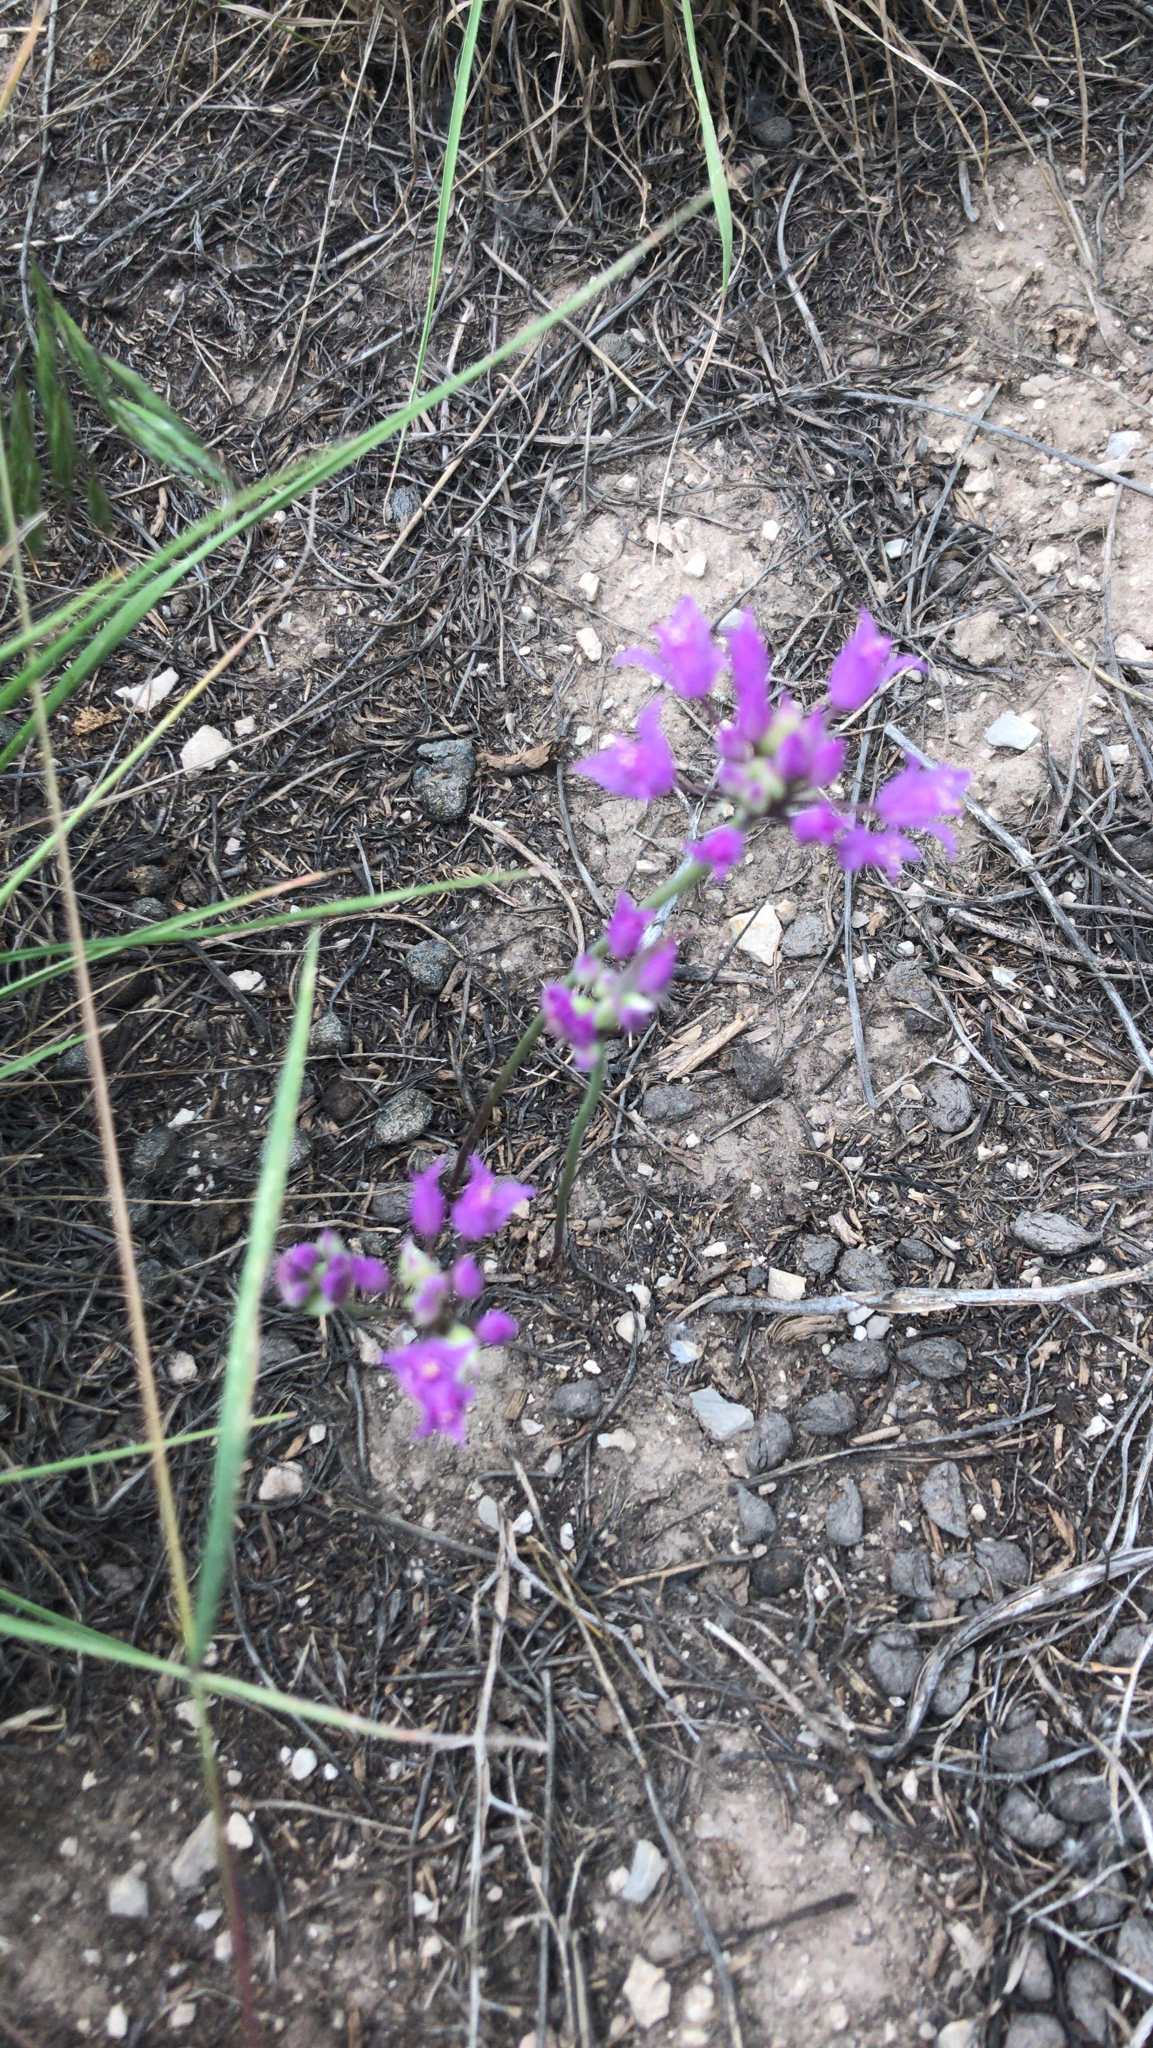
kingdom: Plantae
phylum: Tracheophyta
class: Liliopsida
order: Asparagales
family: Amaryllidaceae
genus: Allium
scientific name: Allium acuminatum
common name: Hooker's onion
